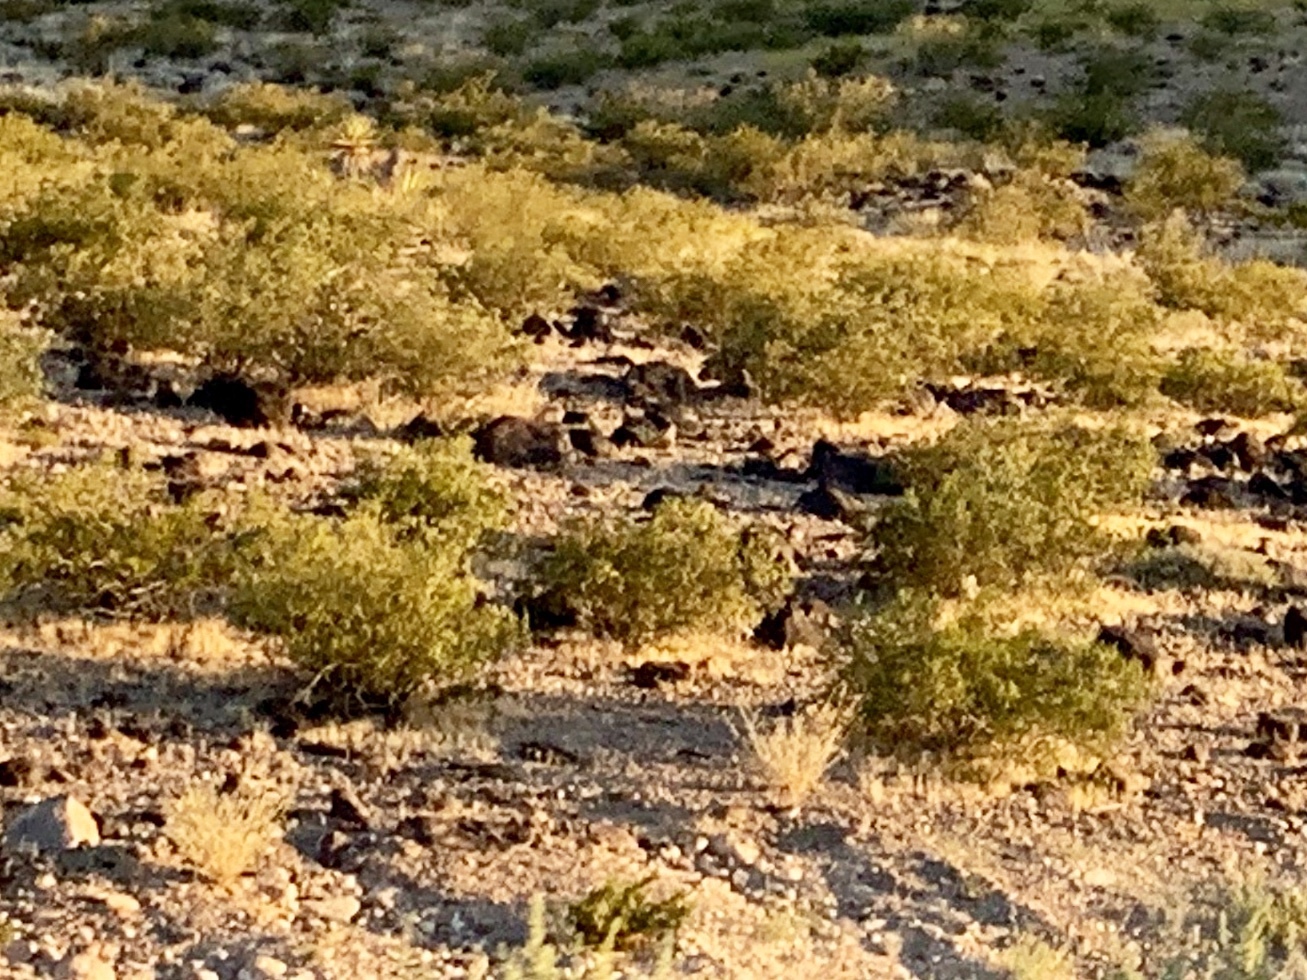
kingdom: Plantae
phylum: Tracheophyta
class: Magnoliopsida
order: Zygophyllales
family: Zygophyllaceae
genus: Larrea
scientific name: Larrea tridentata
